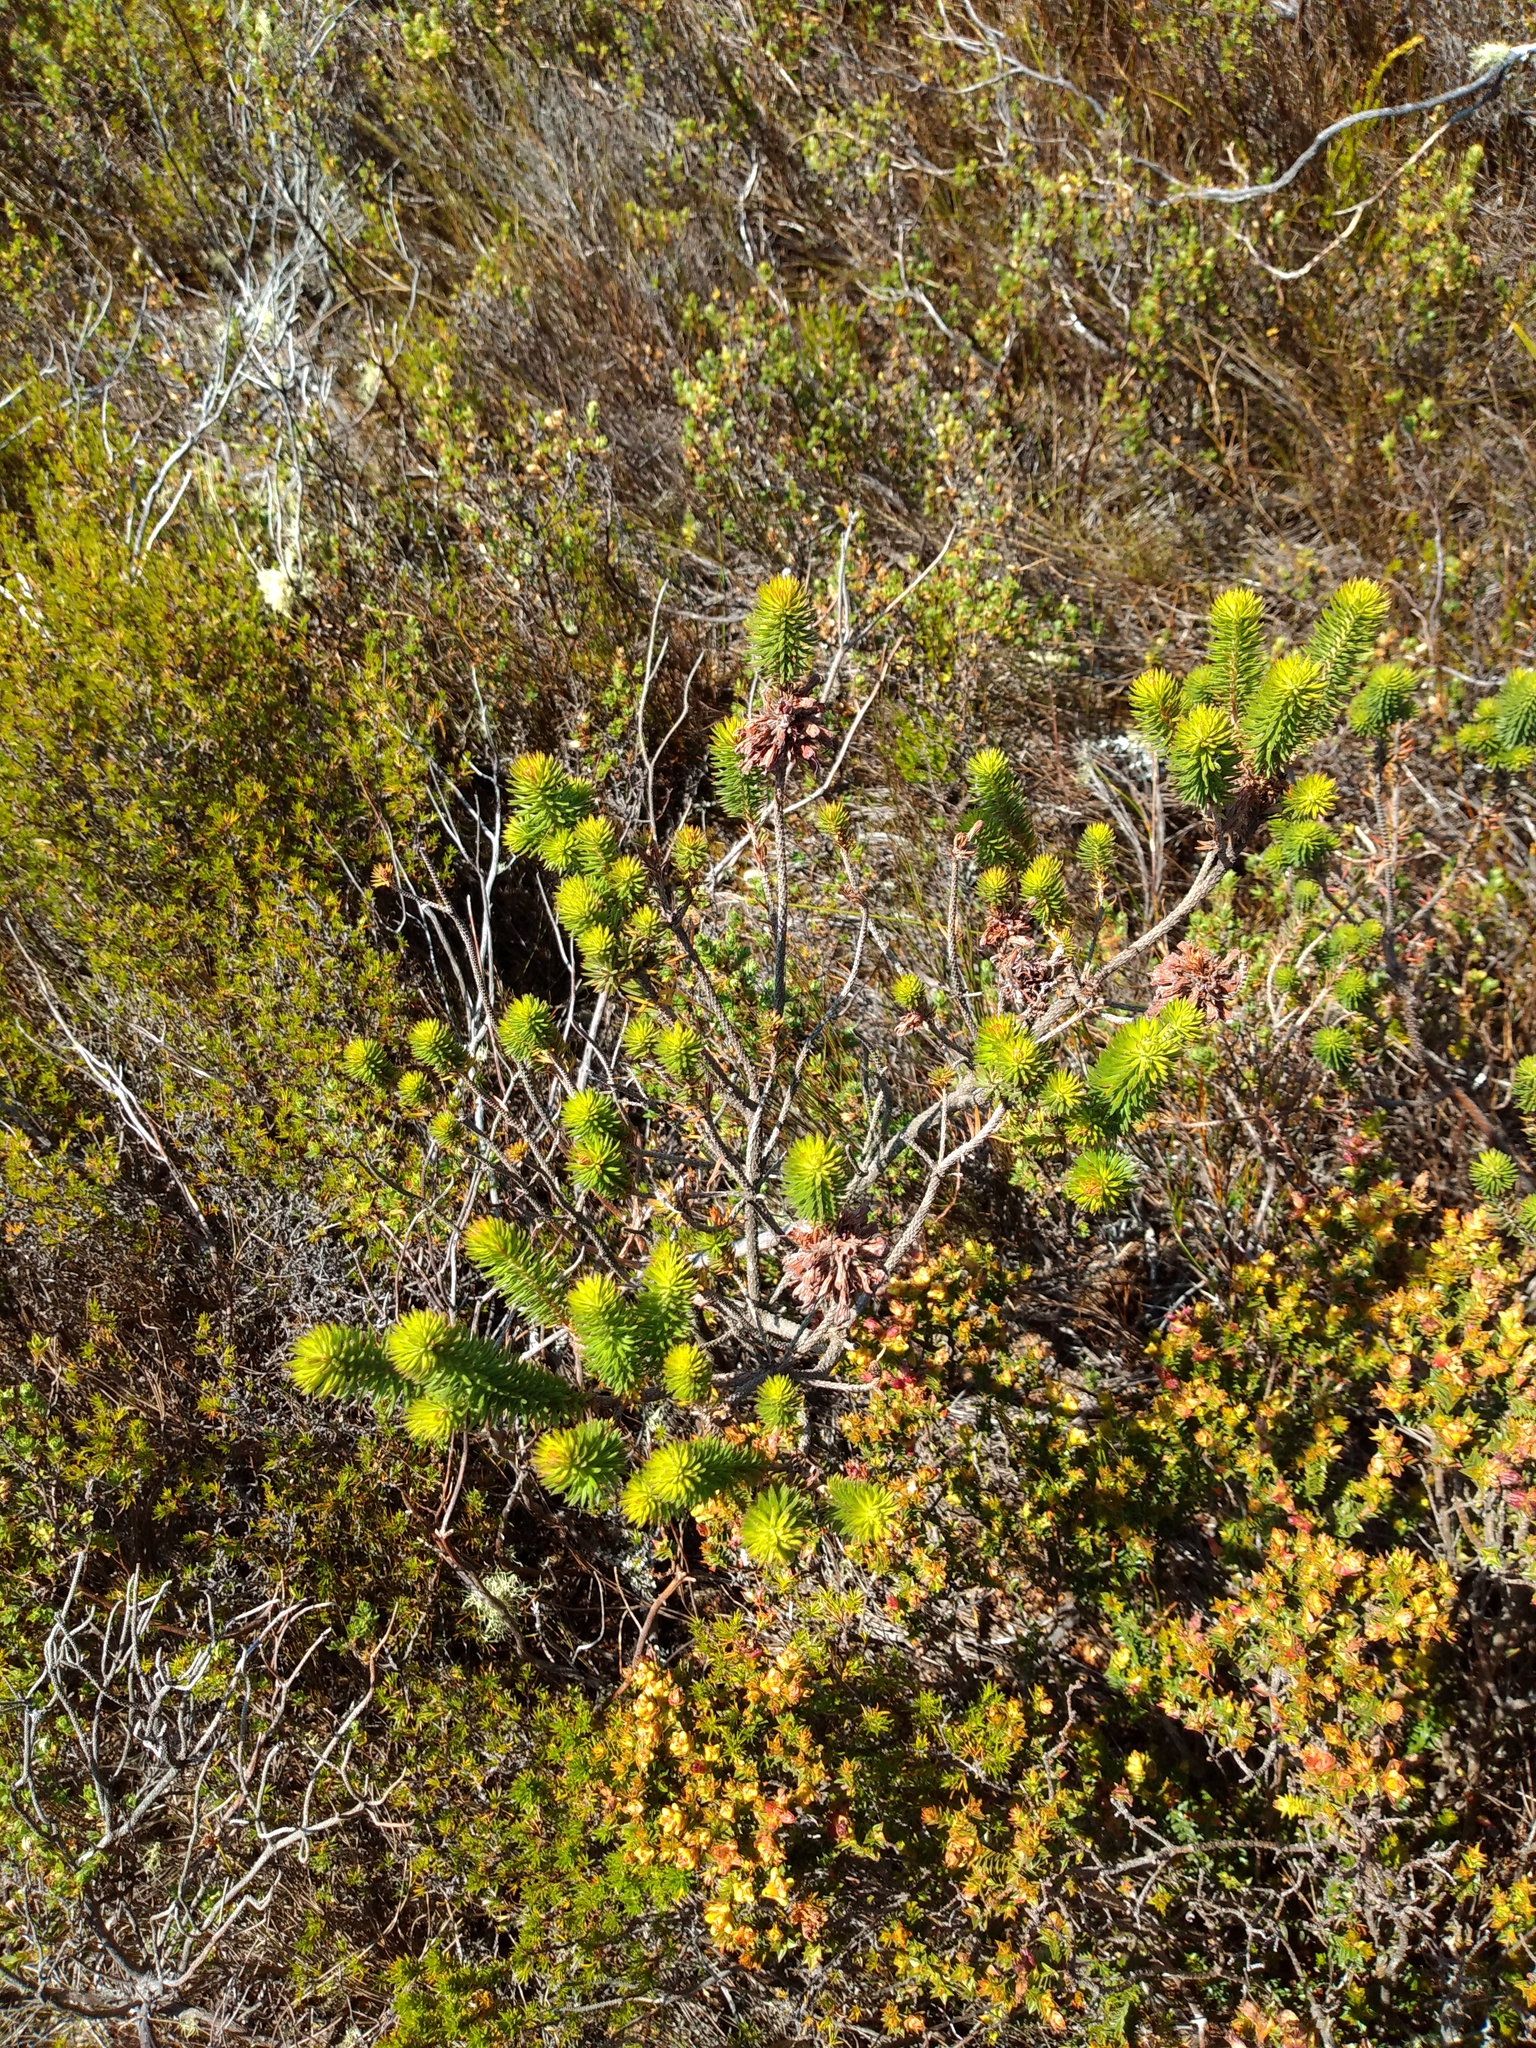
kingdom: Plantae
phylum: Tracheophyta
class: Magnoliopsida
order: Ericales
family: Ericaceae
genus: Erica
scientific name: Erica abietina
